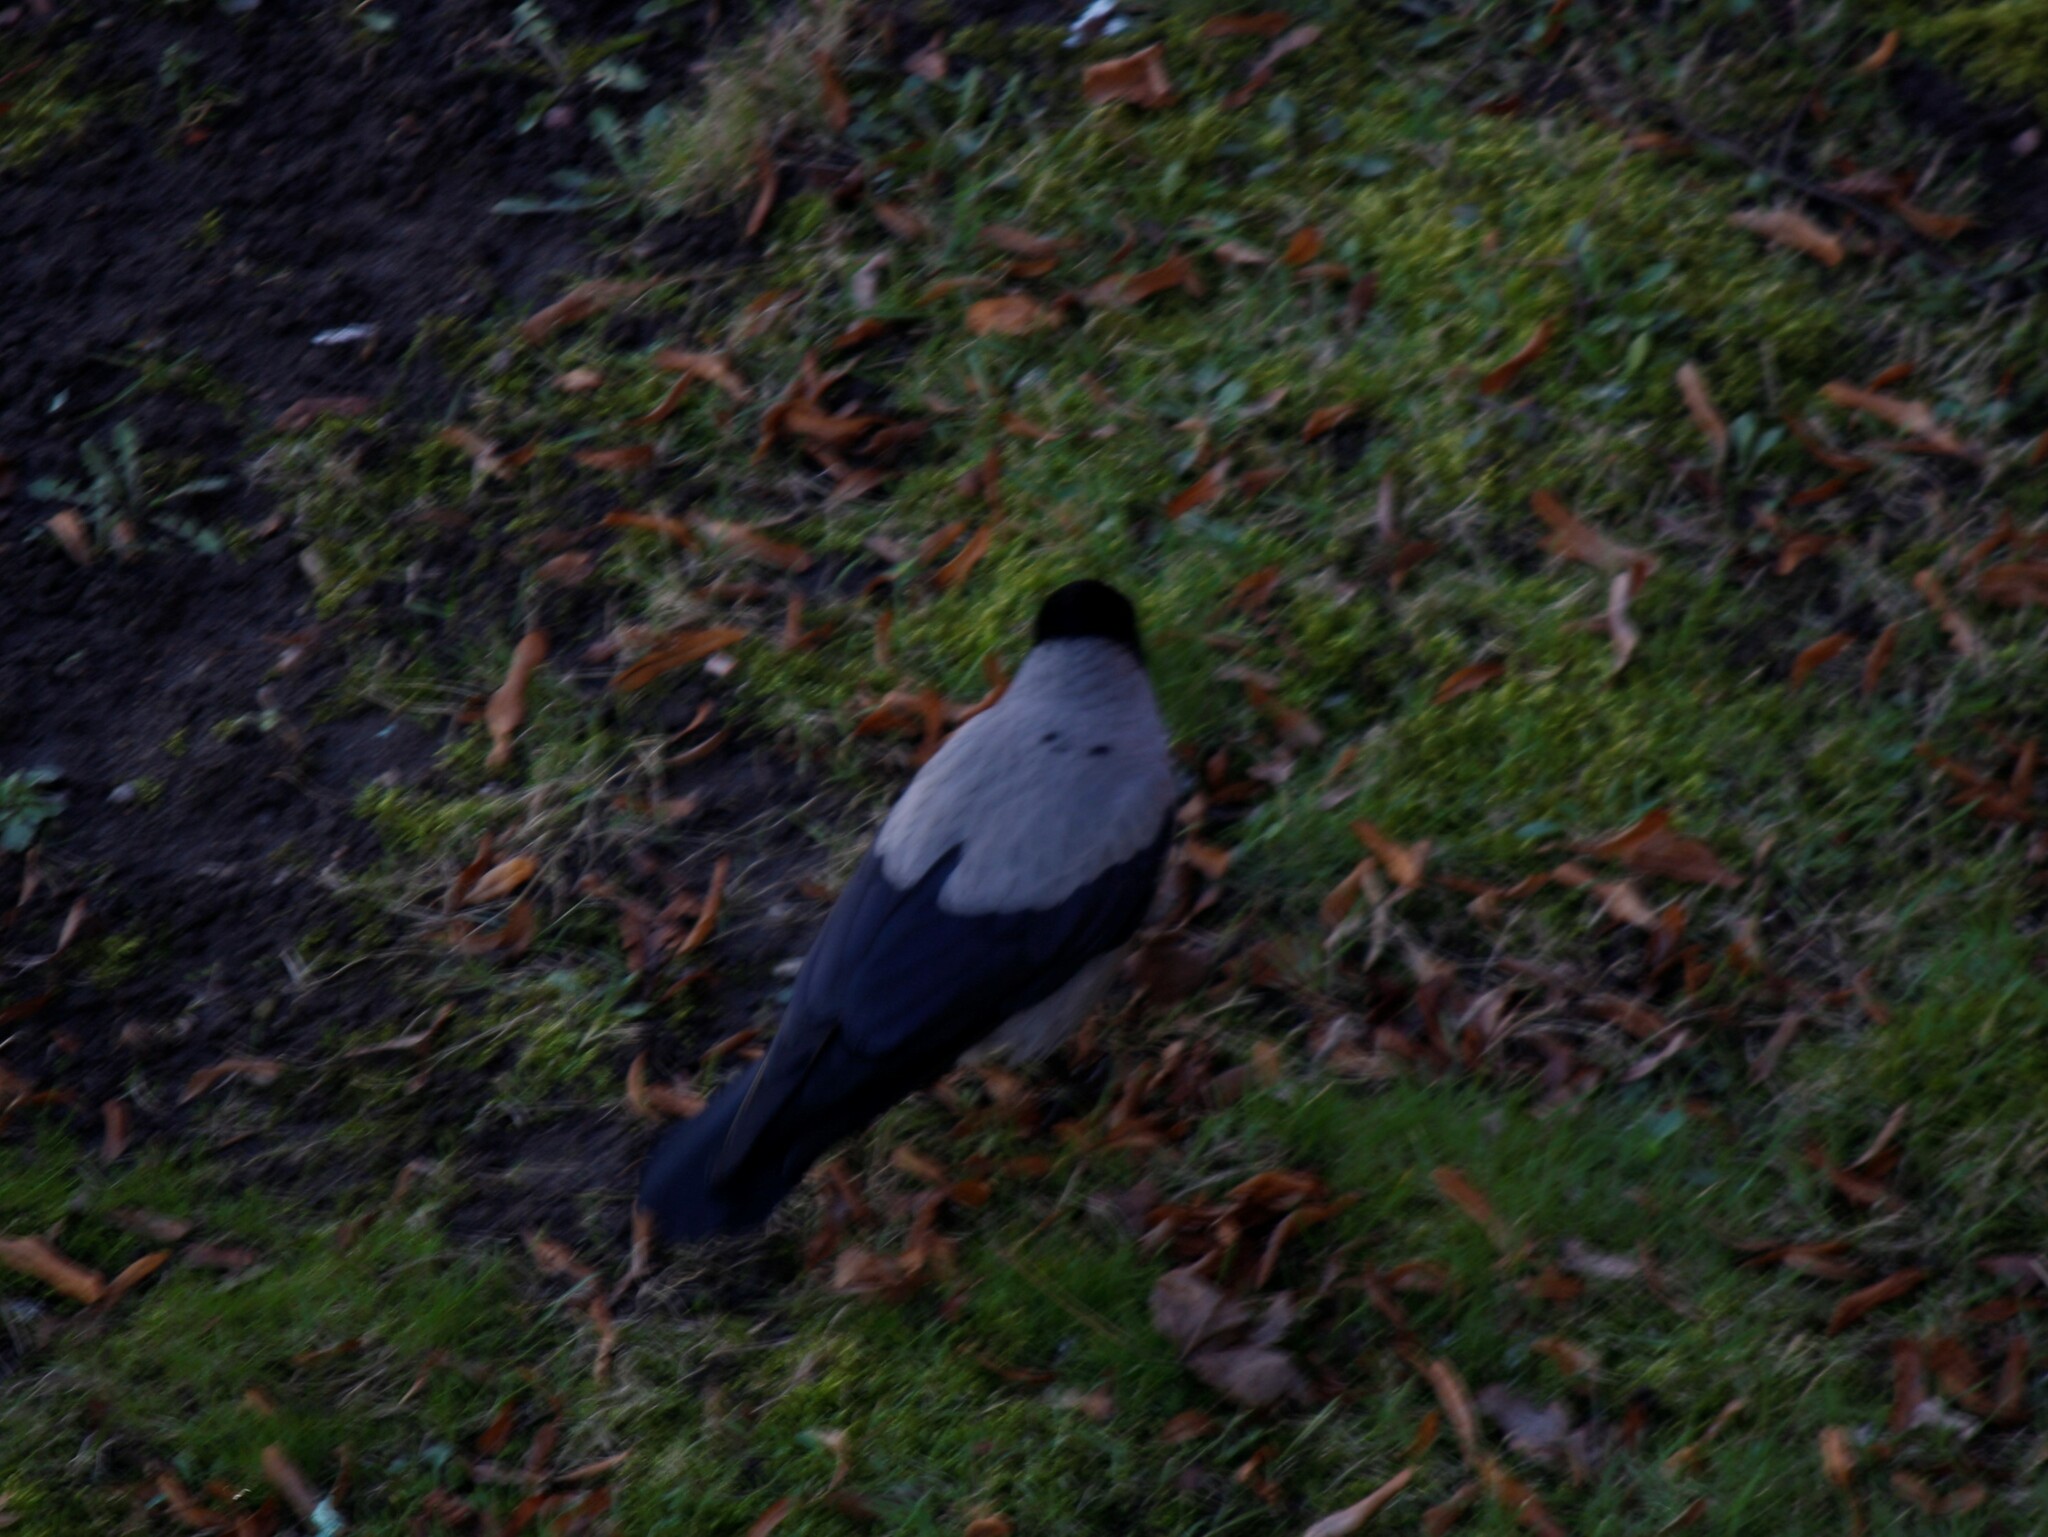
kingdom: Animalia
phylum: Chordata
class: Aves
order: Passeriformes
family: Corvidae
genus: Corvus
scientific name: Corvus cornix
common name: Hooded crow
